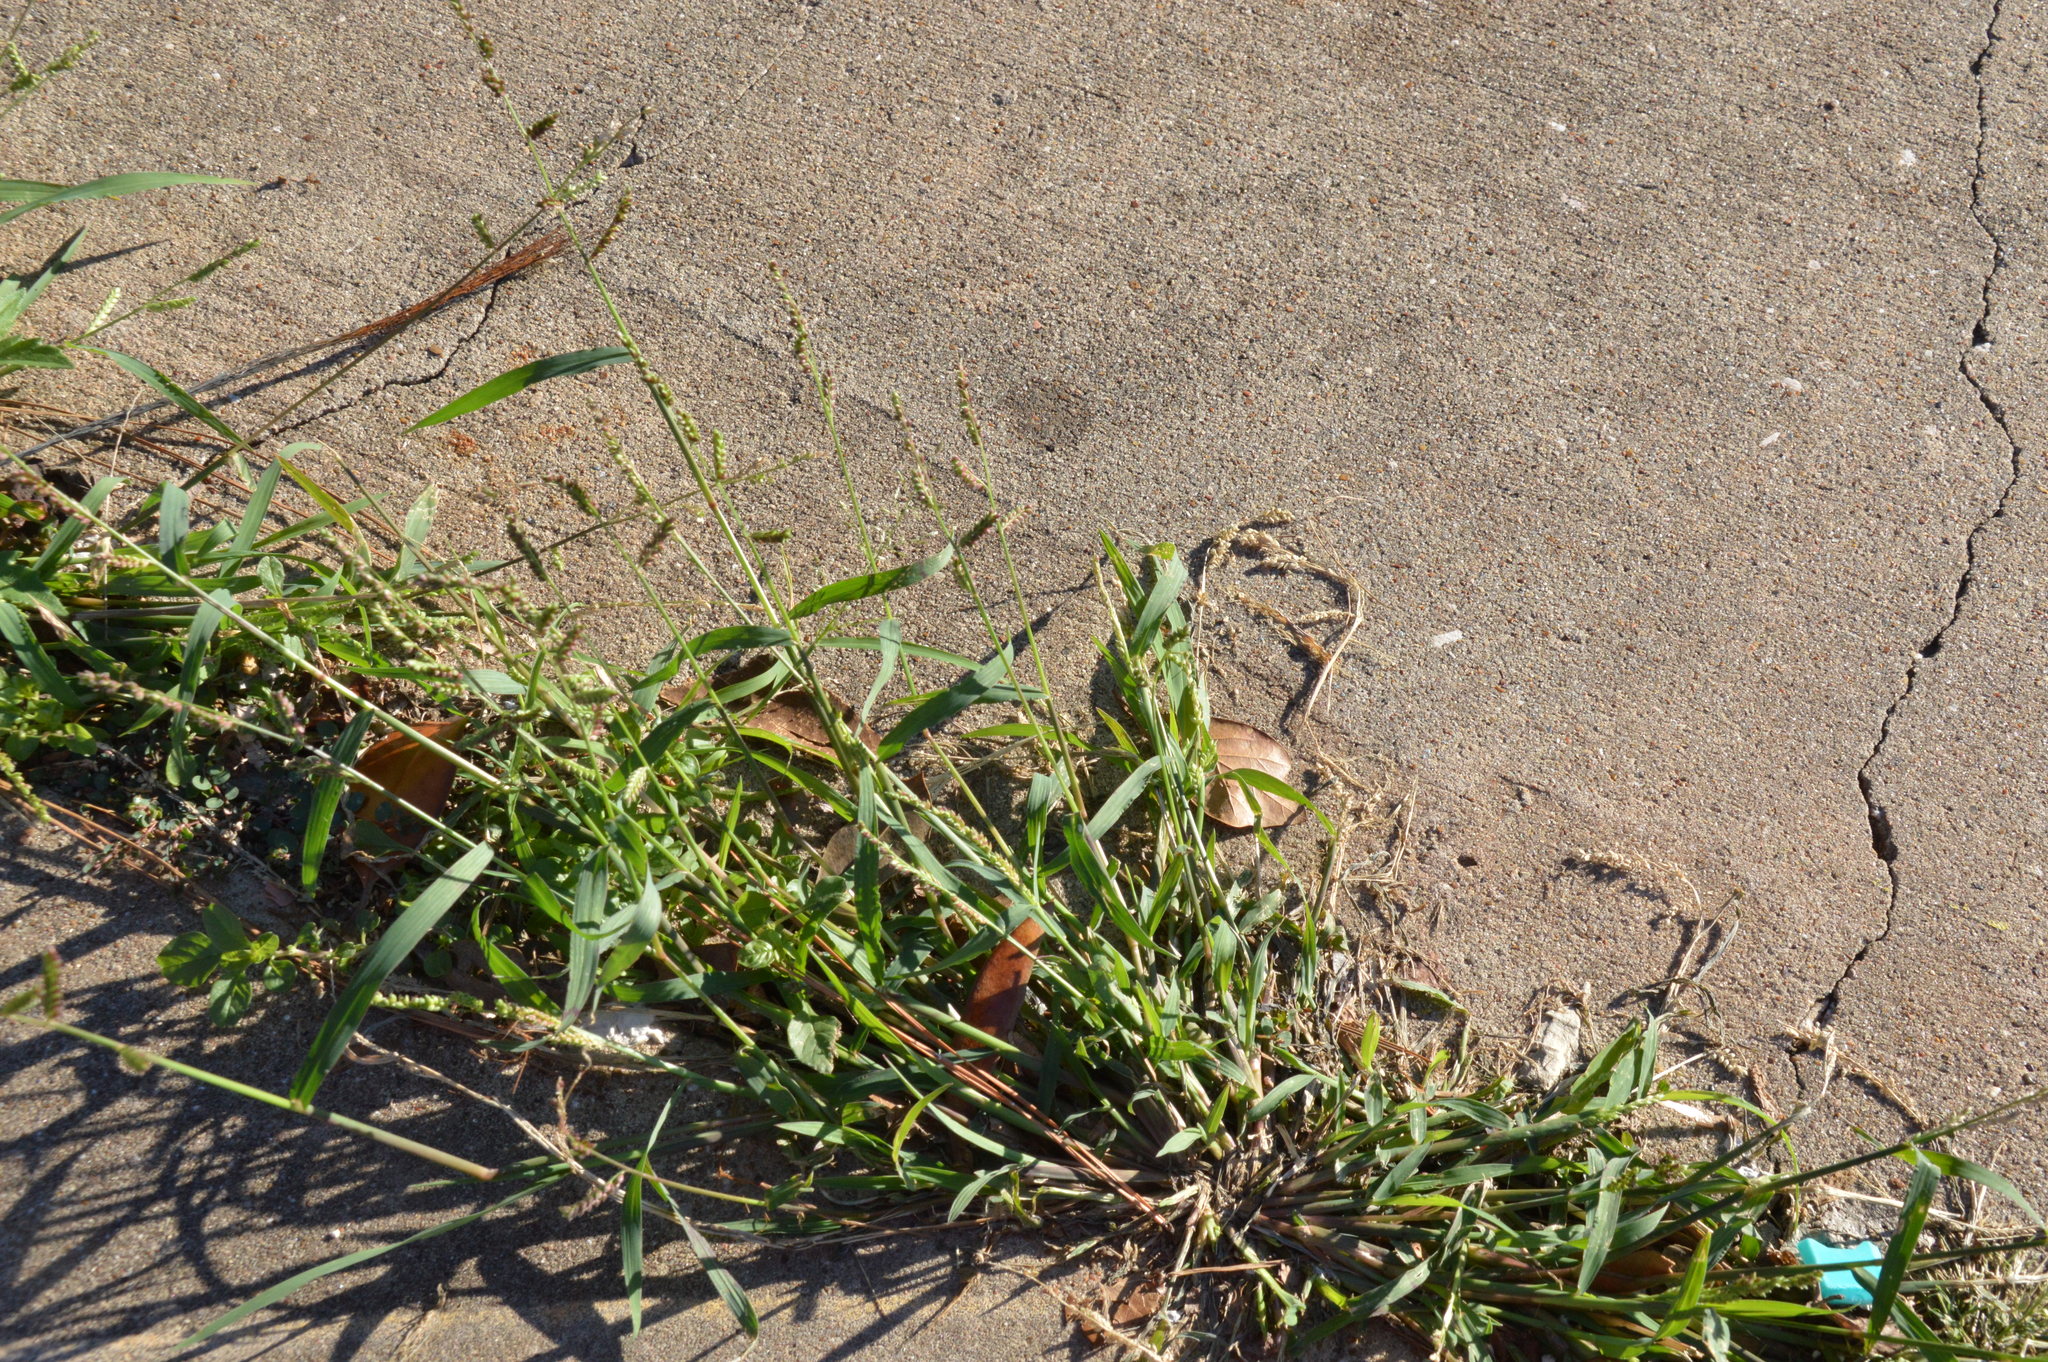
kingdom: Plantae
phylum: Tracheophyta
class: Liliopsida
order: Poales
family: Poaceae
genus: Echinochloa
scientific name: Echinochloa colonum
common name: Jungle rice
